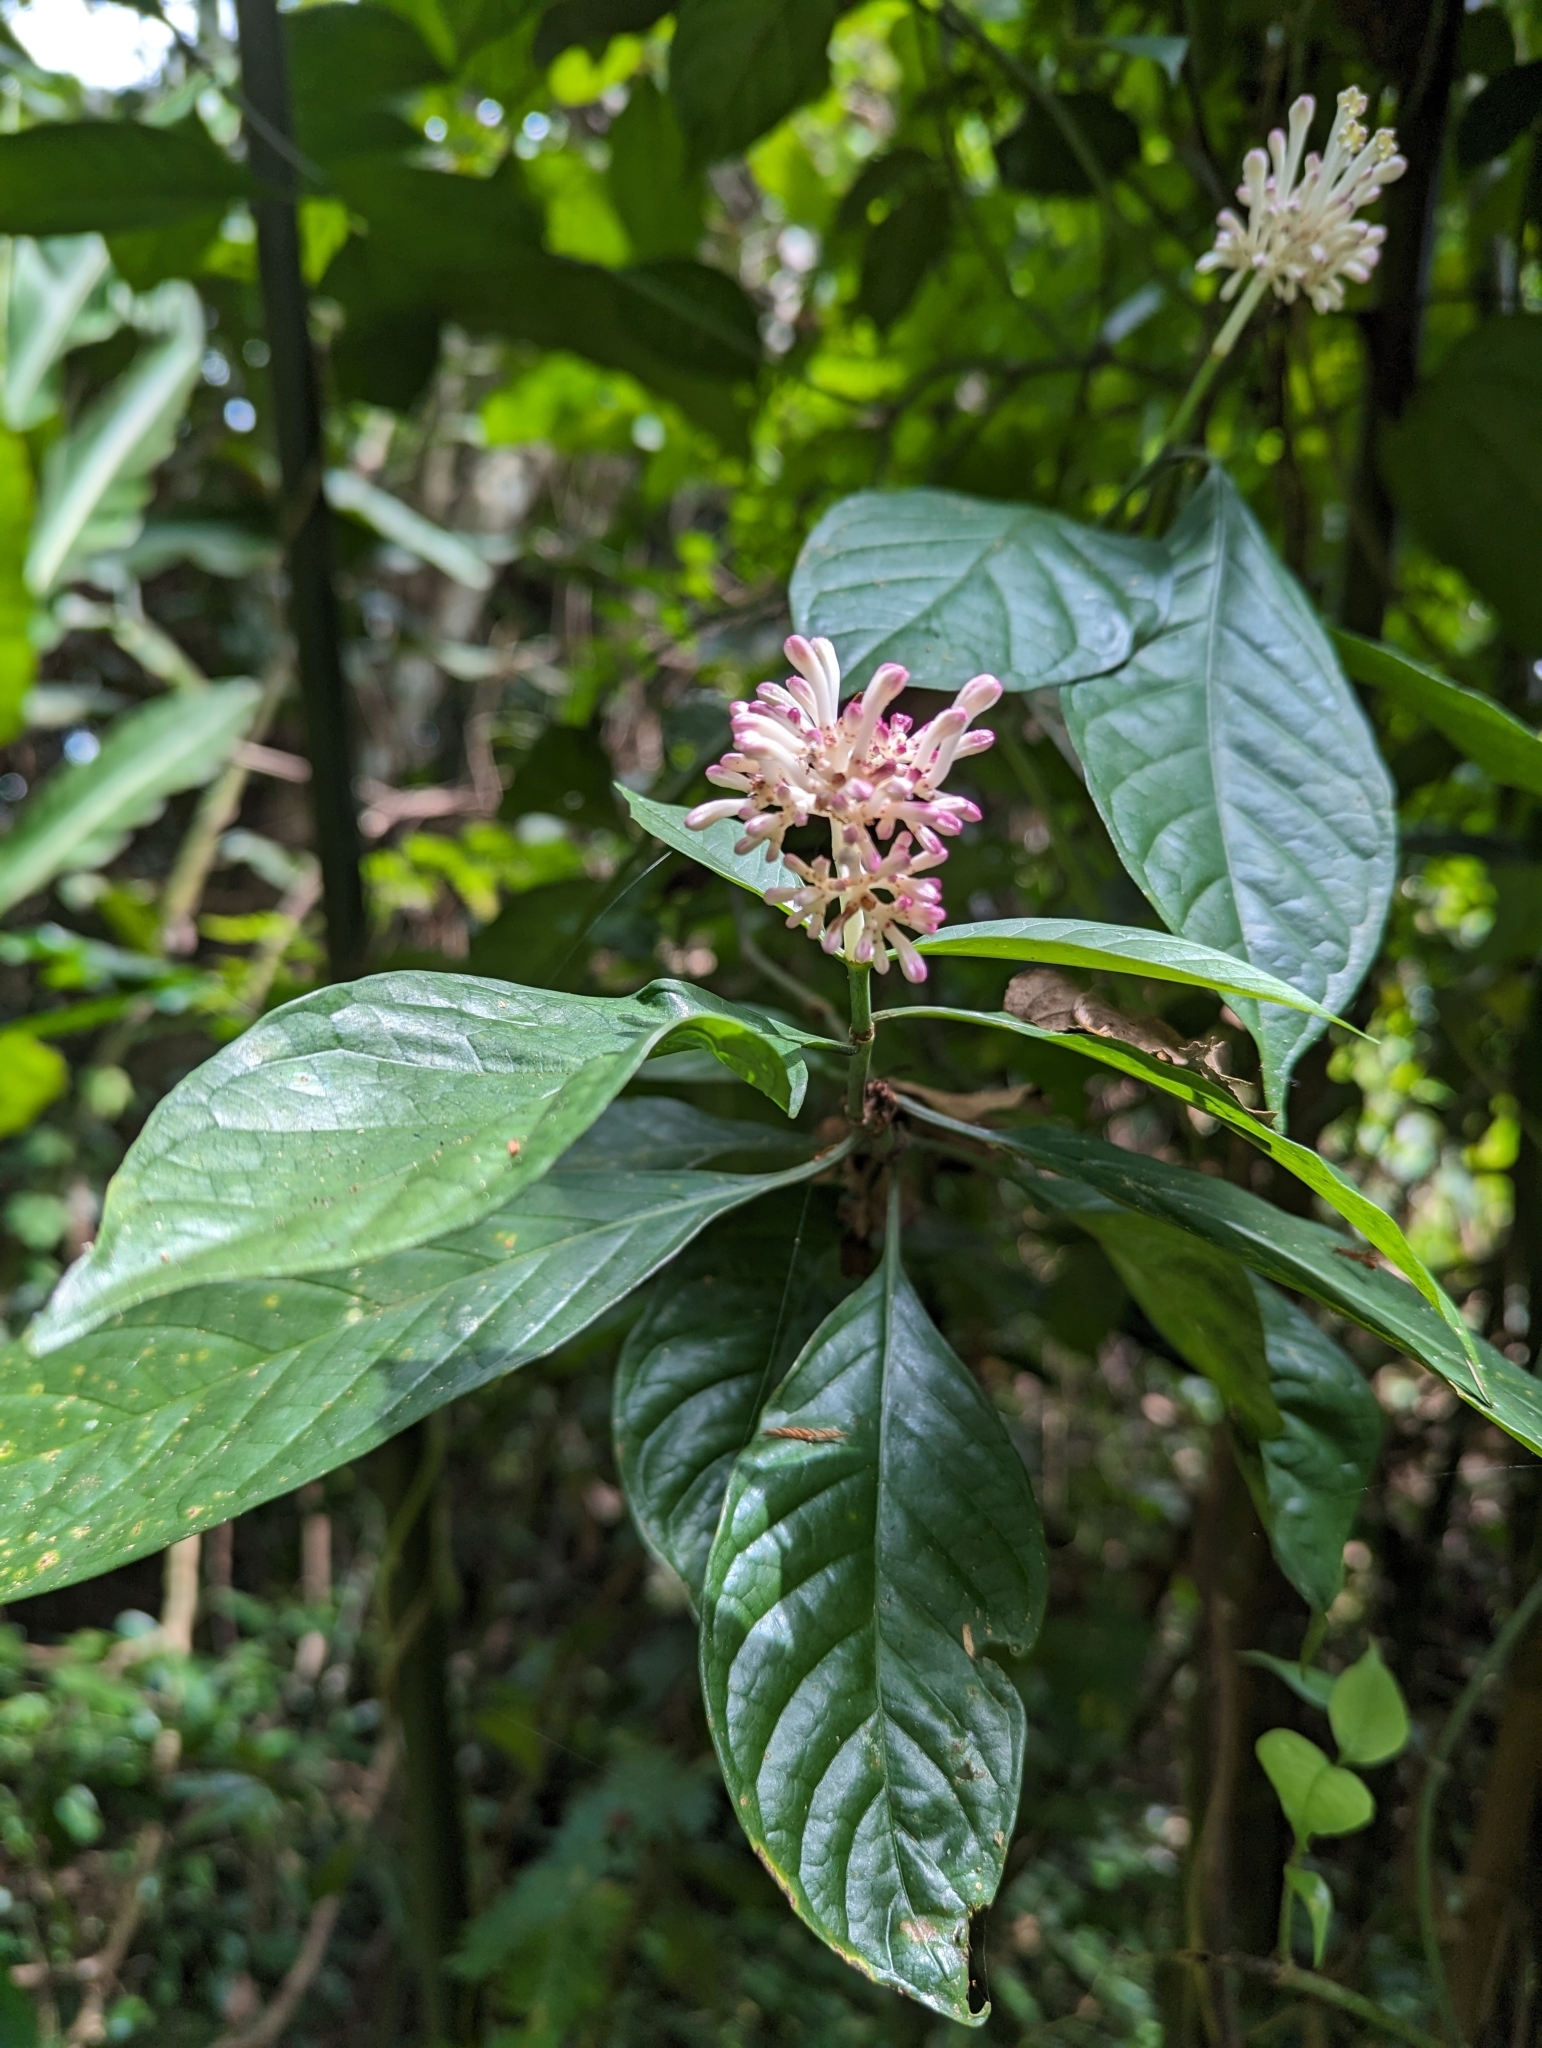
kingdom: Plantae
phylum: Tracheophyta
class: Magnoliopsida
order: Gentianales
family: Rubiaceae
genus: Chassalia
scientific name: Chassalia curviflora
